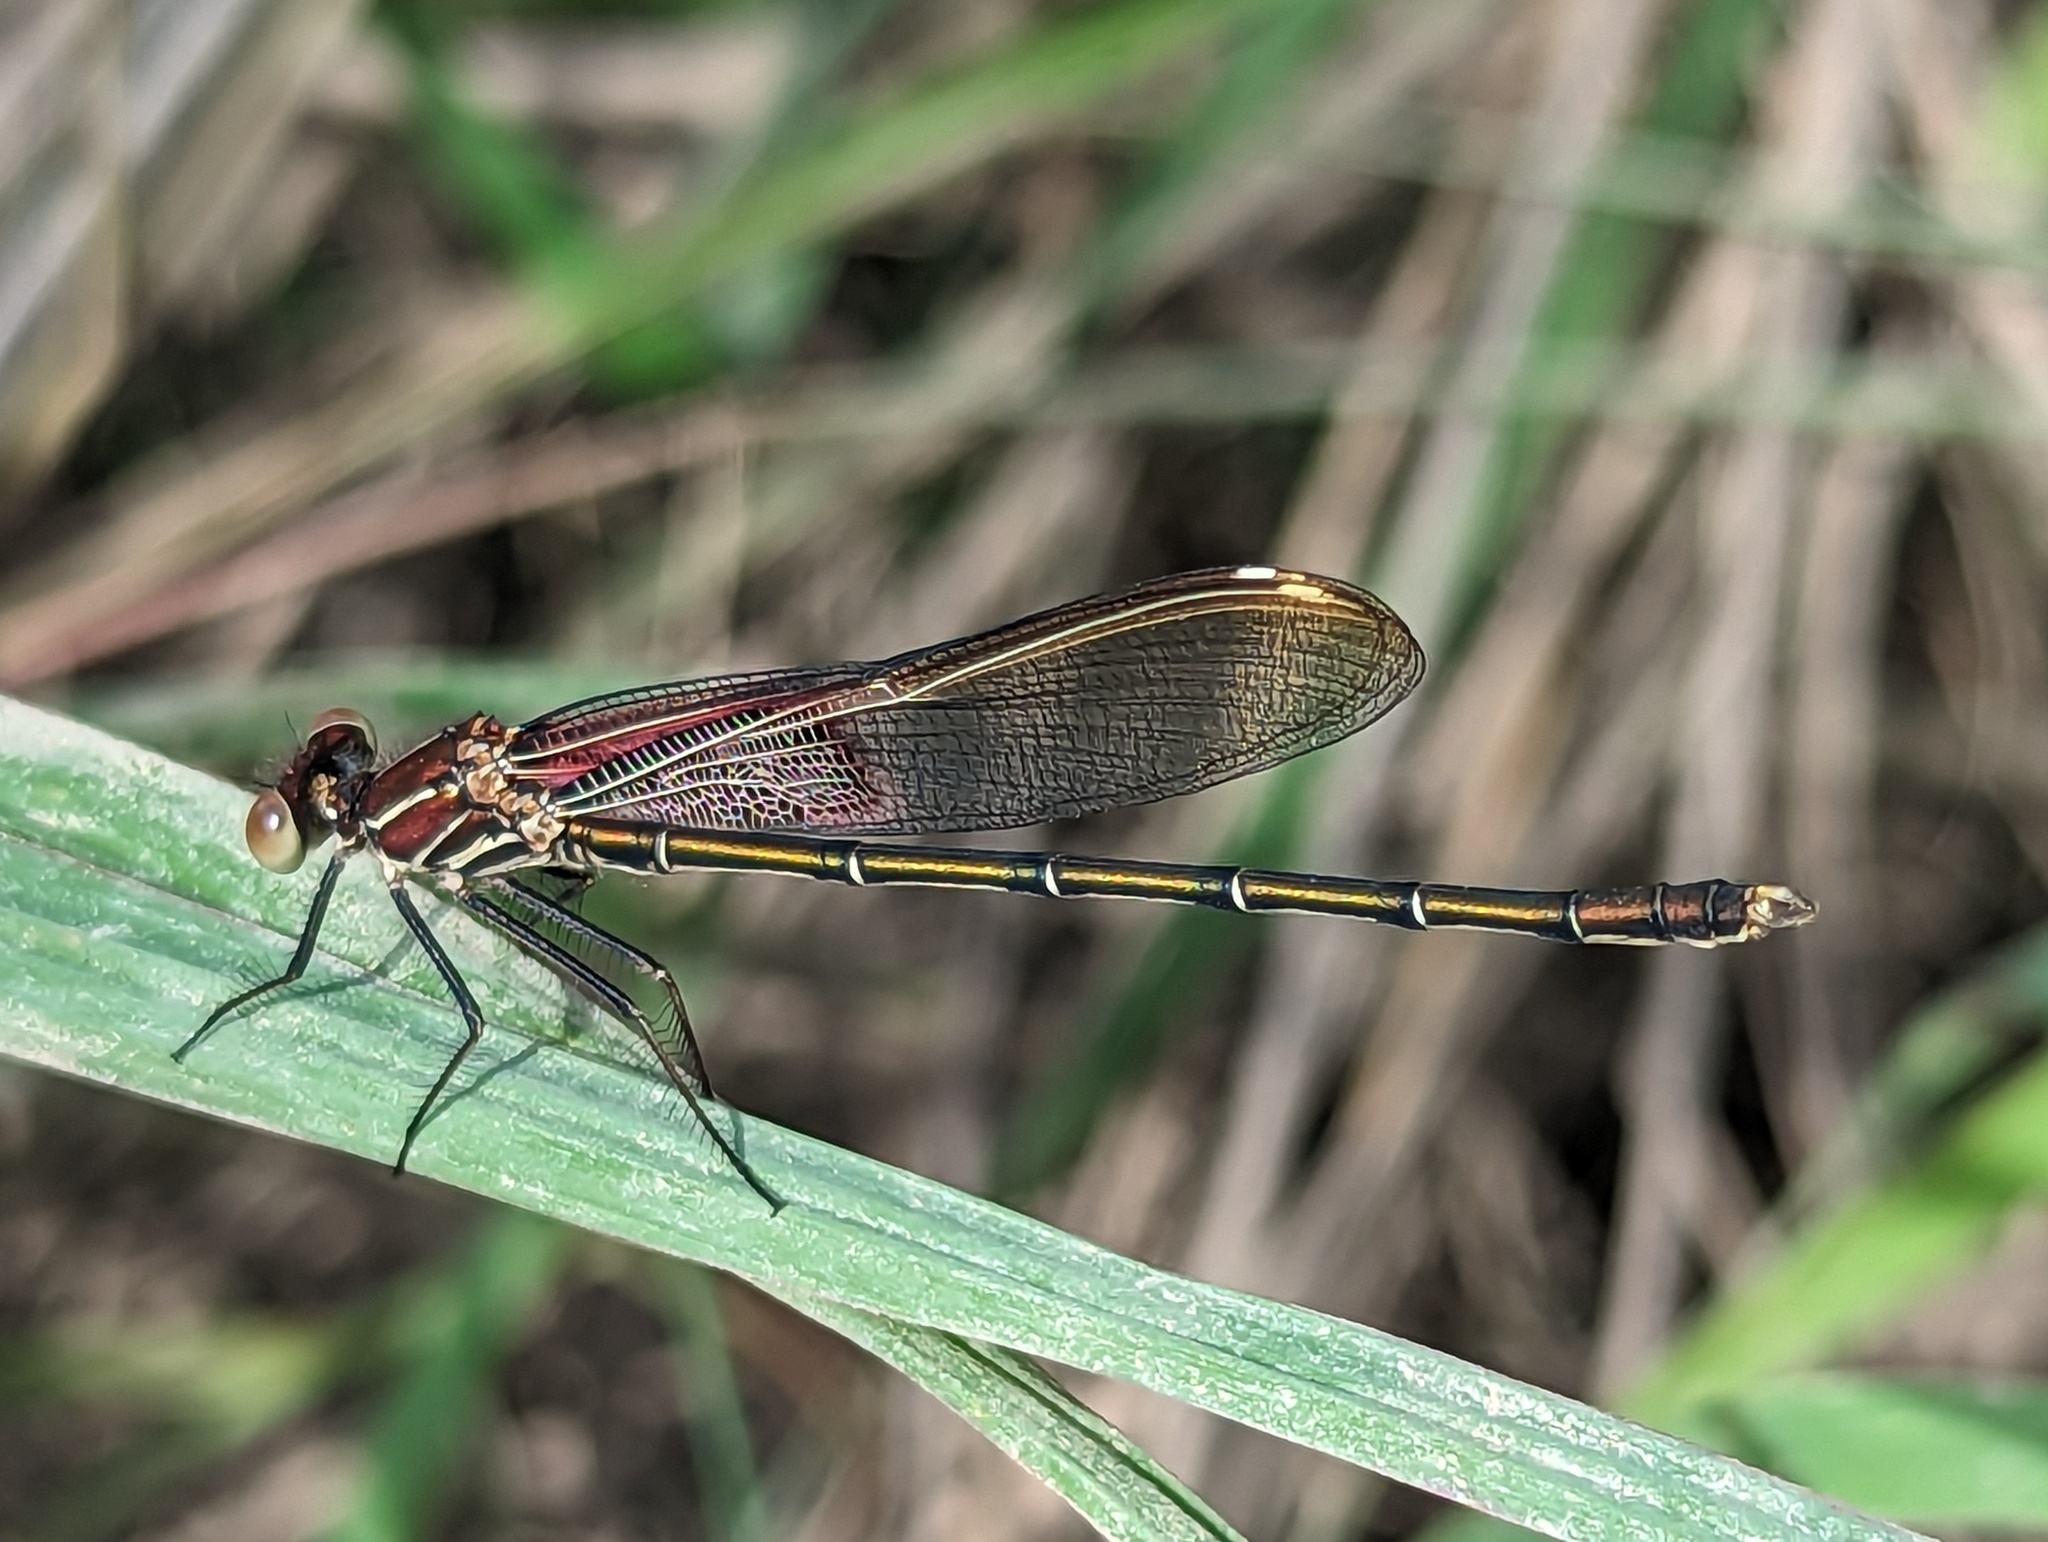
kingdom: Animalia
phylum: Arthropoda
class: Insecta
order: Odonata
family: Calopterygidae
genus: Hetaerina
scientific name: Hetaerina americana
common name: American rubyspot
